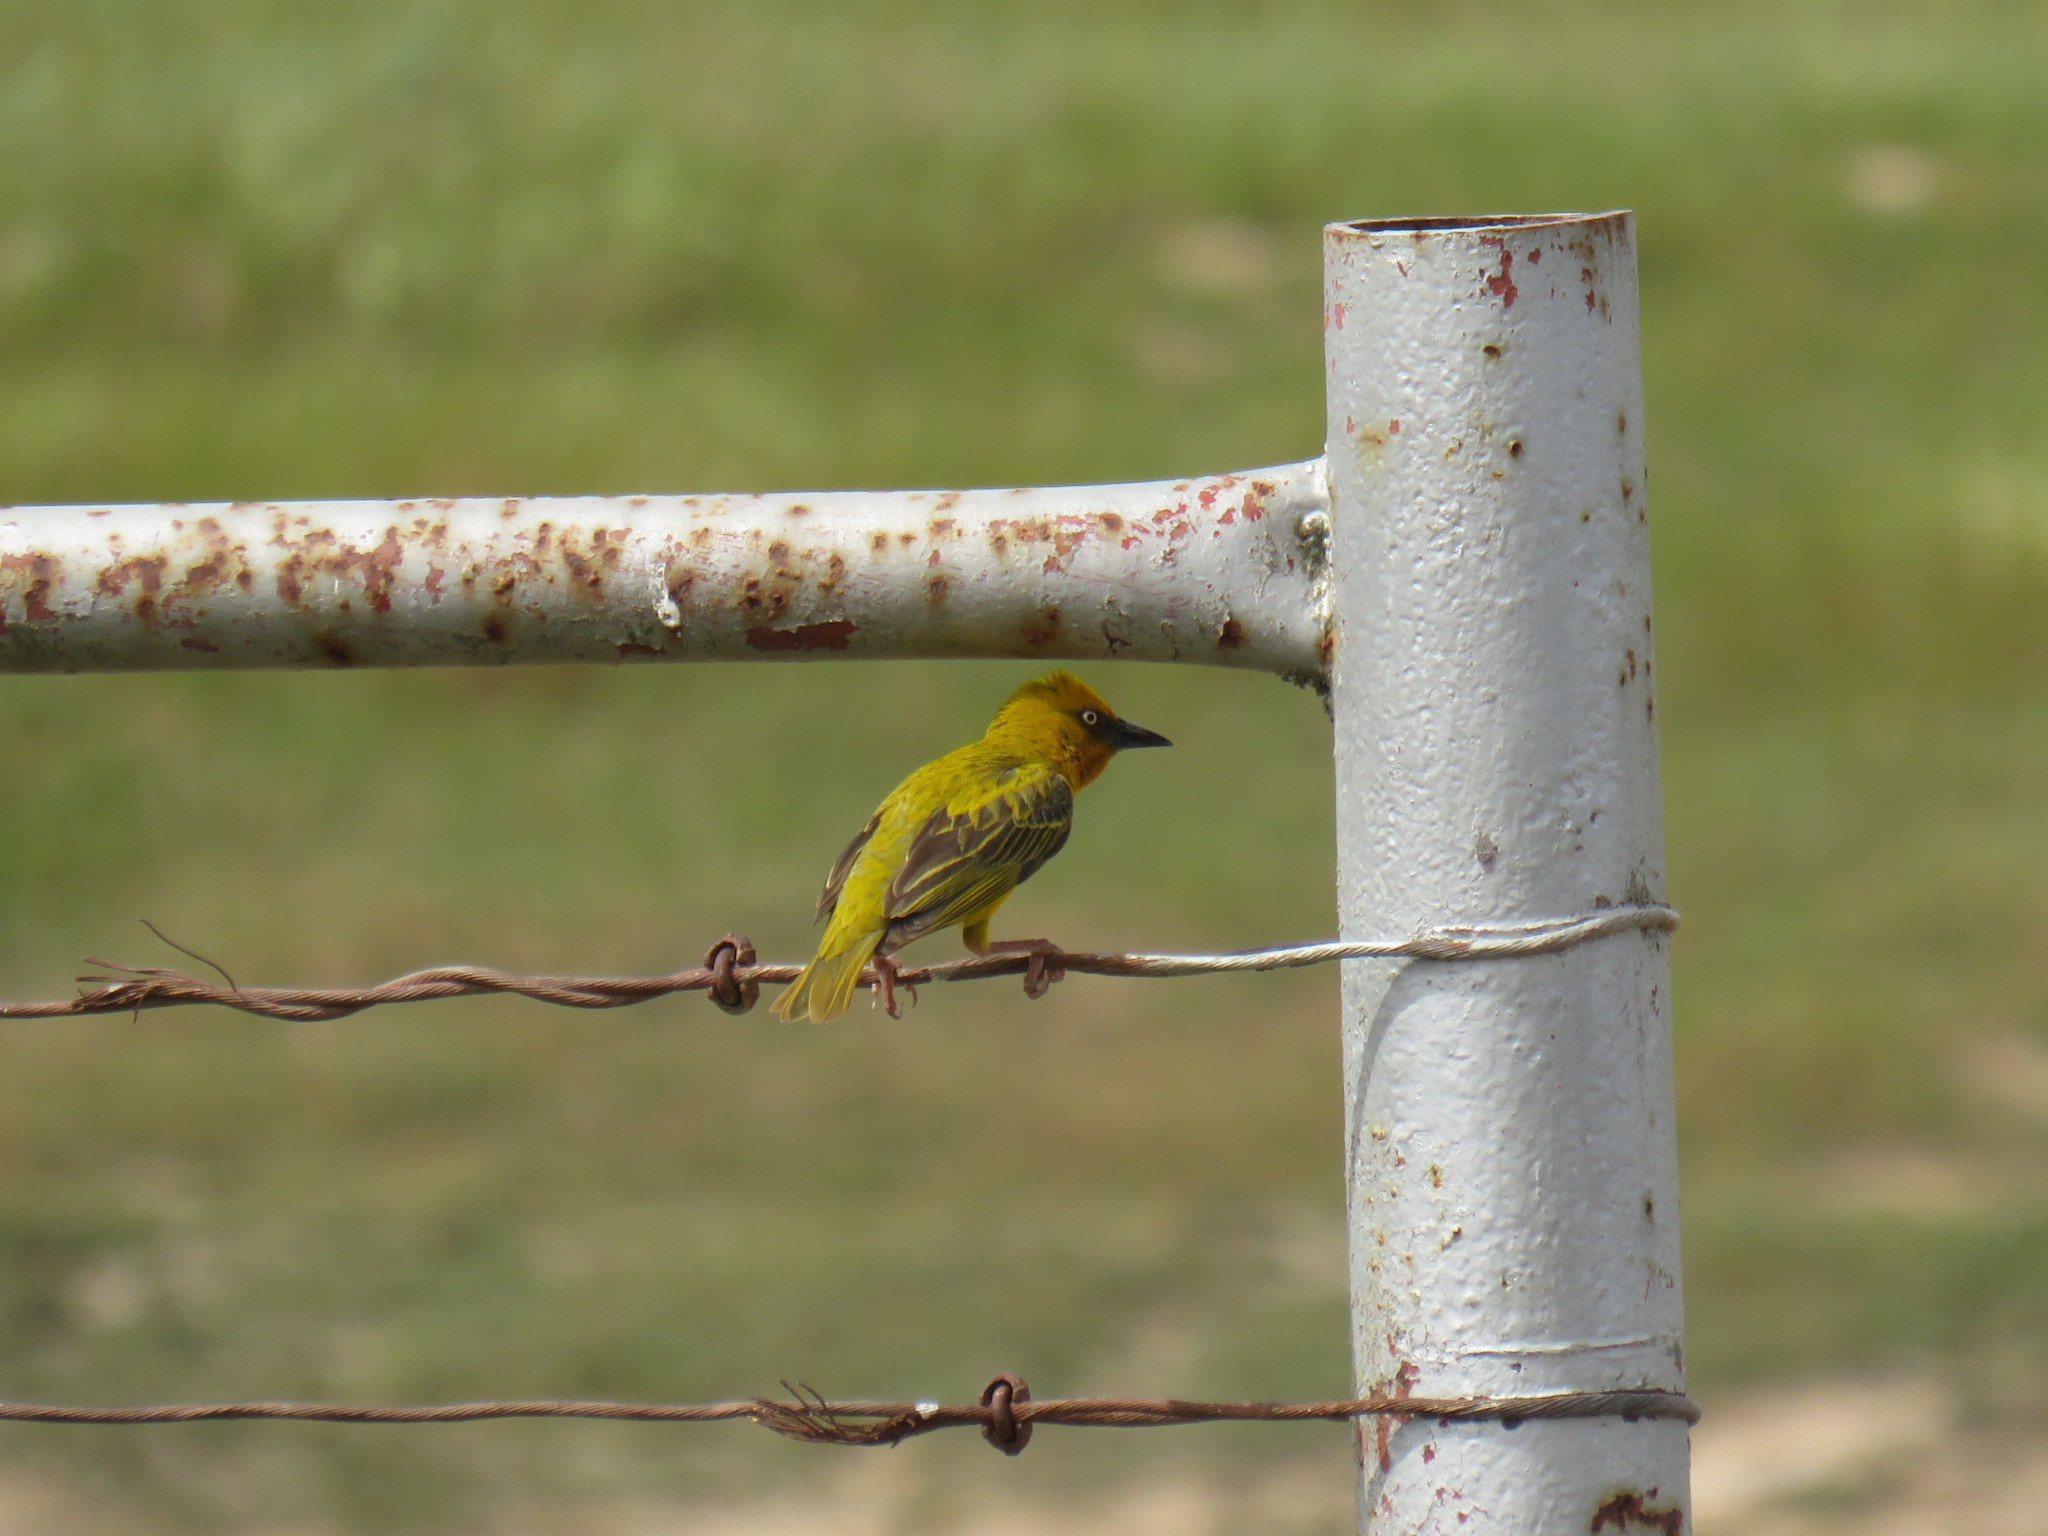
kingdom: Animalia
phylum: Chordata
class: Aves
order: Passeriformes
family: Ploceidae
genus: Ploceus
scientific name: Ploceus capensis
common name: Cape weaver
